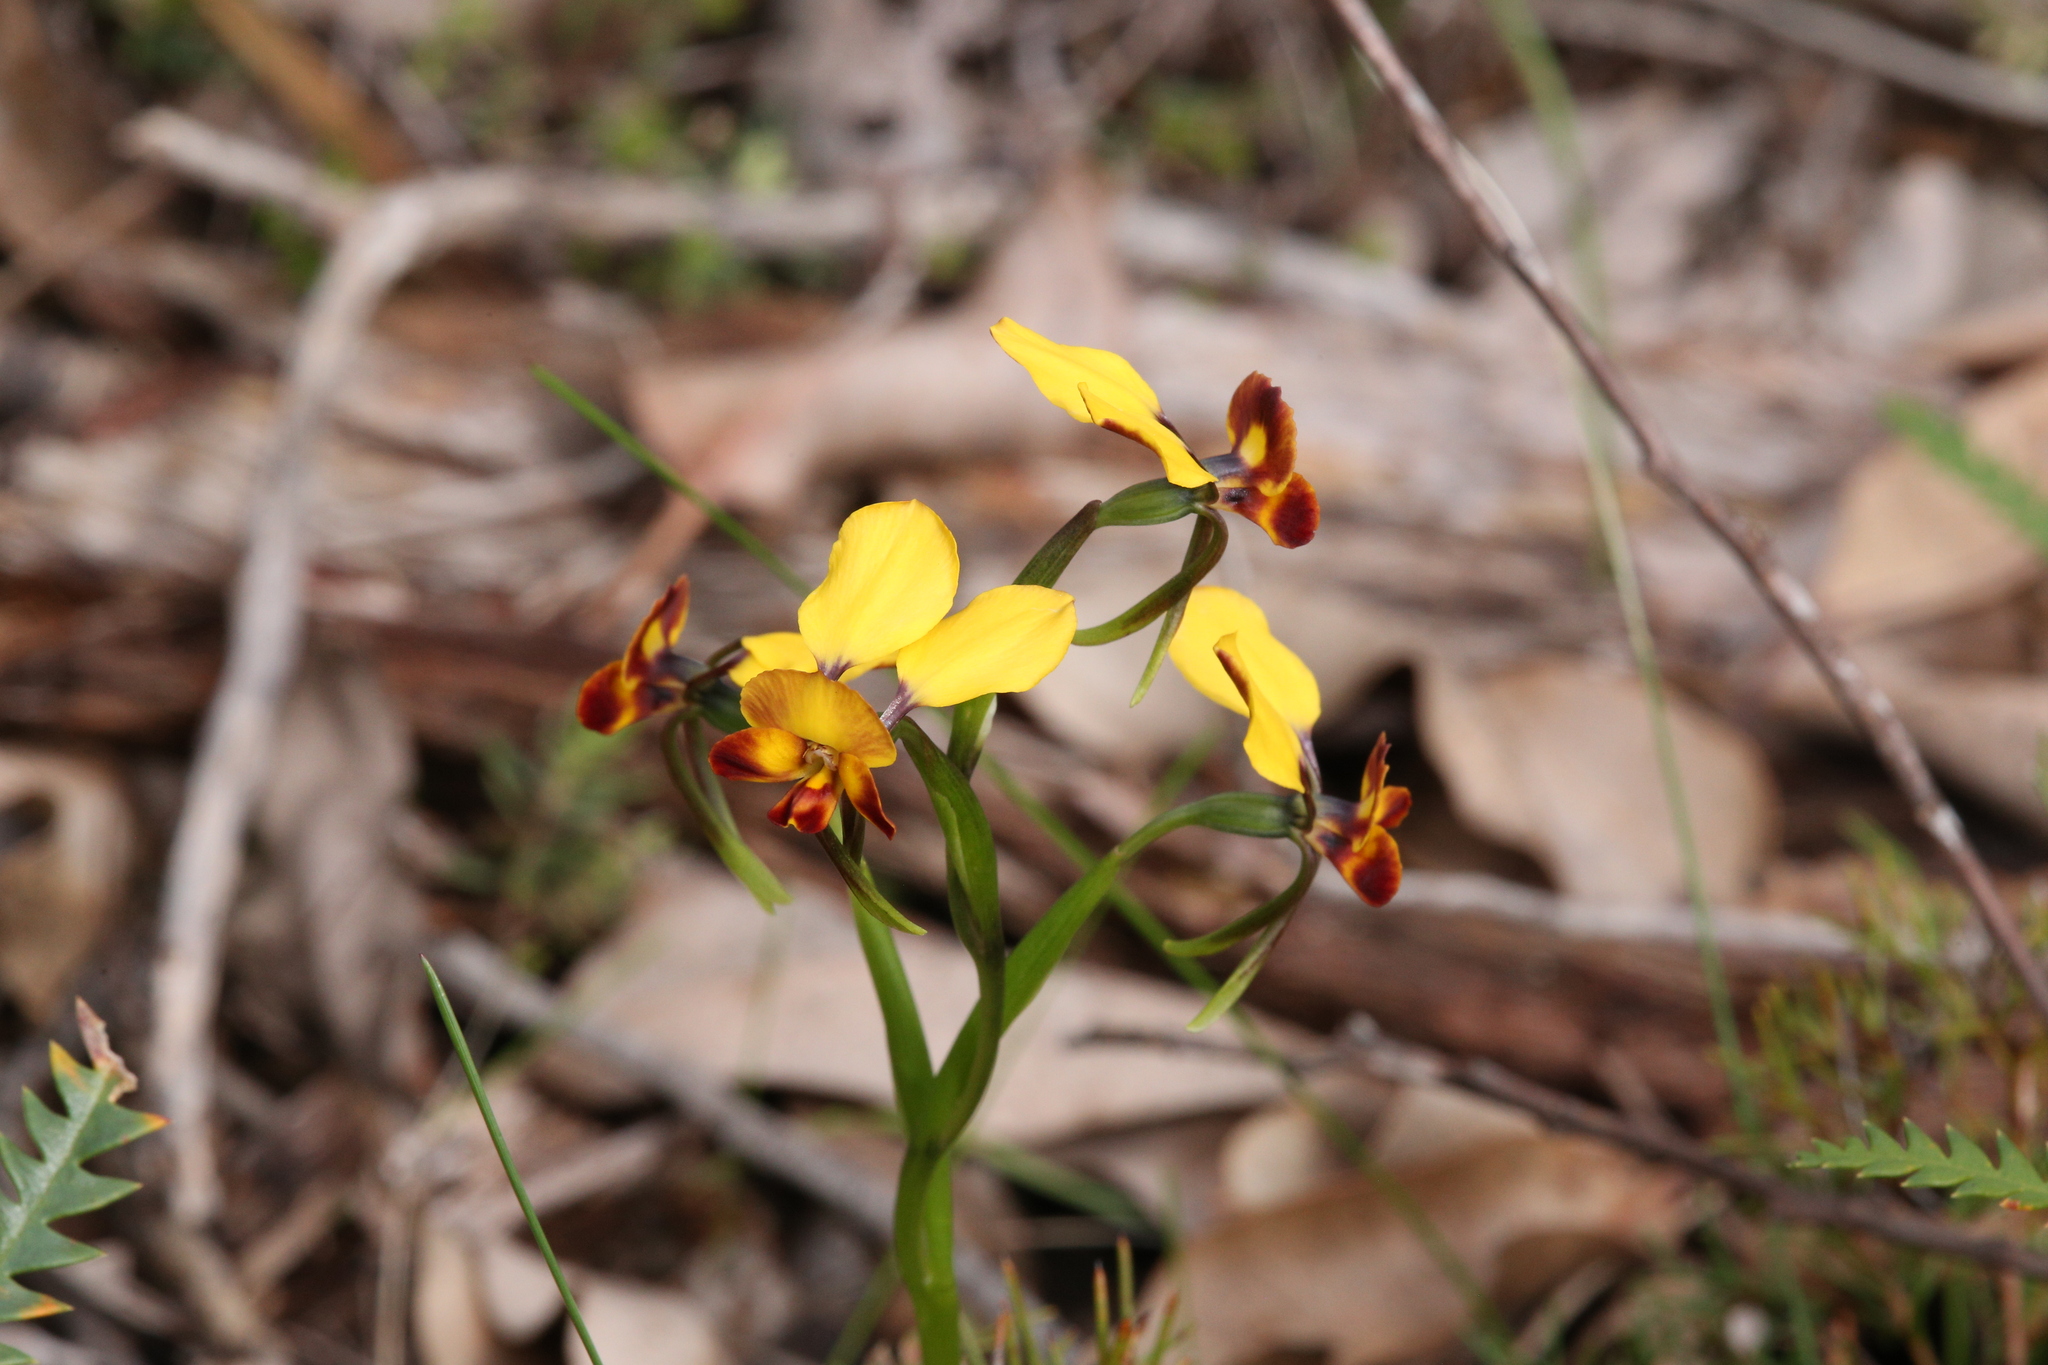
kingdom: Plantae
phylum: Tracheophyta
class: Liliopsida
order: Asparagales
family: Orchidaceae
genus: Diuris
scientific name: Diuris brumalis
